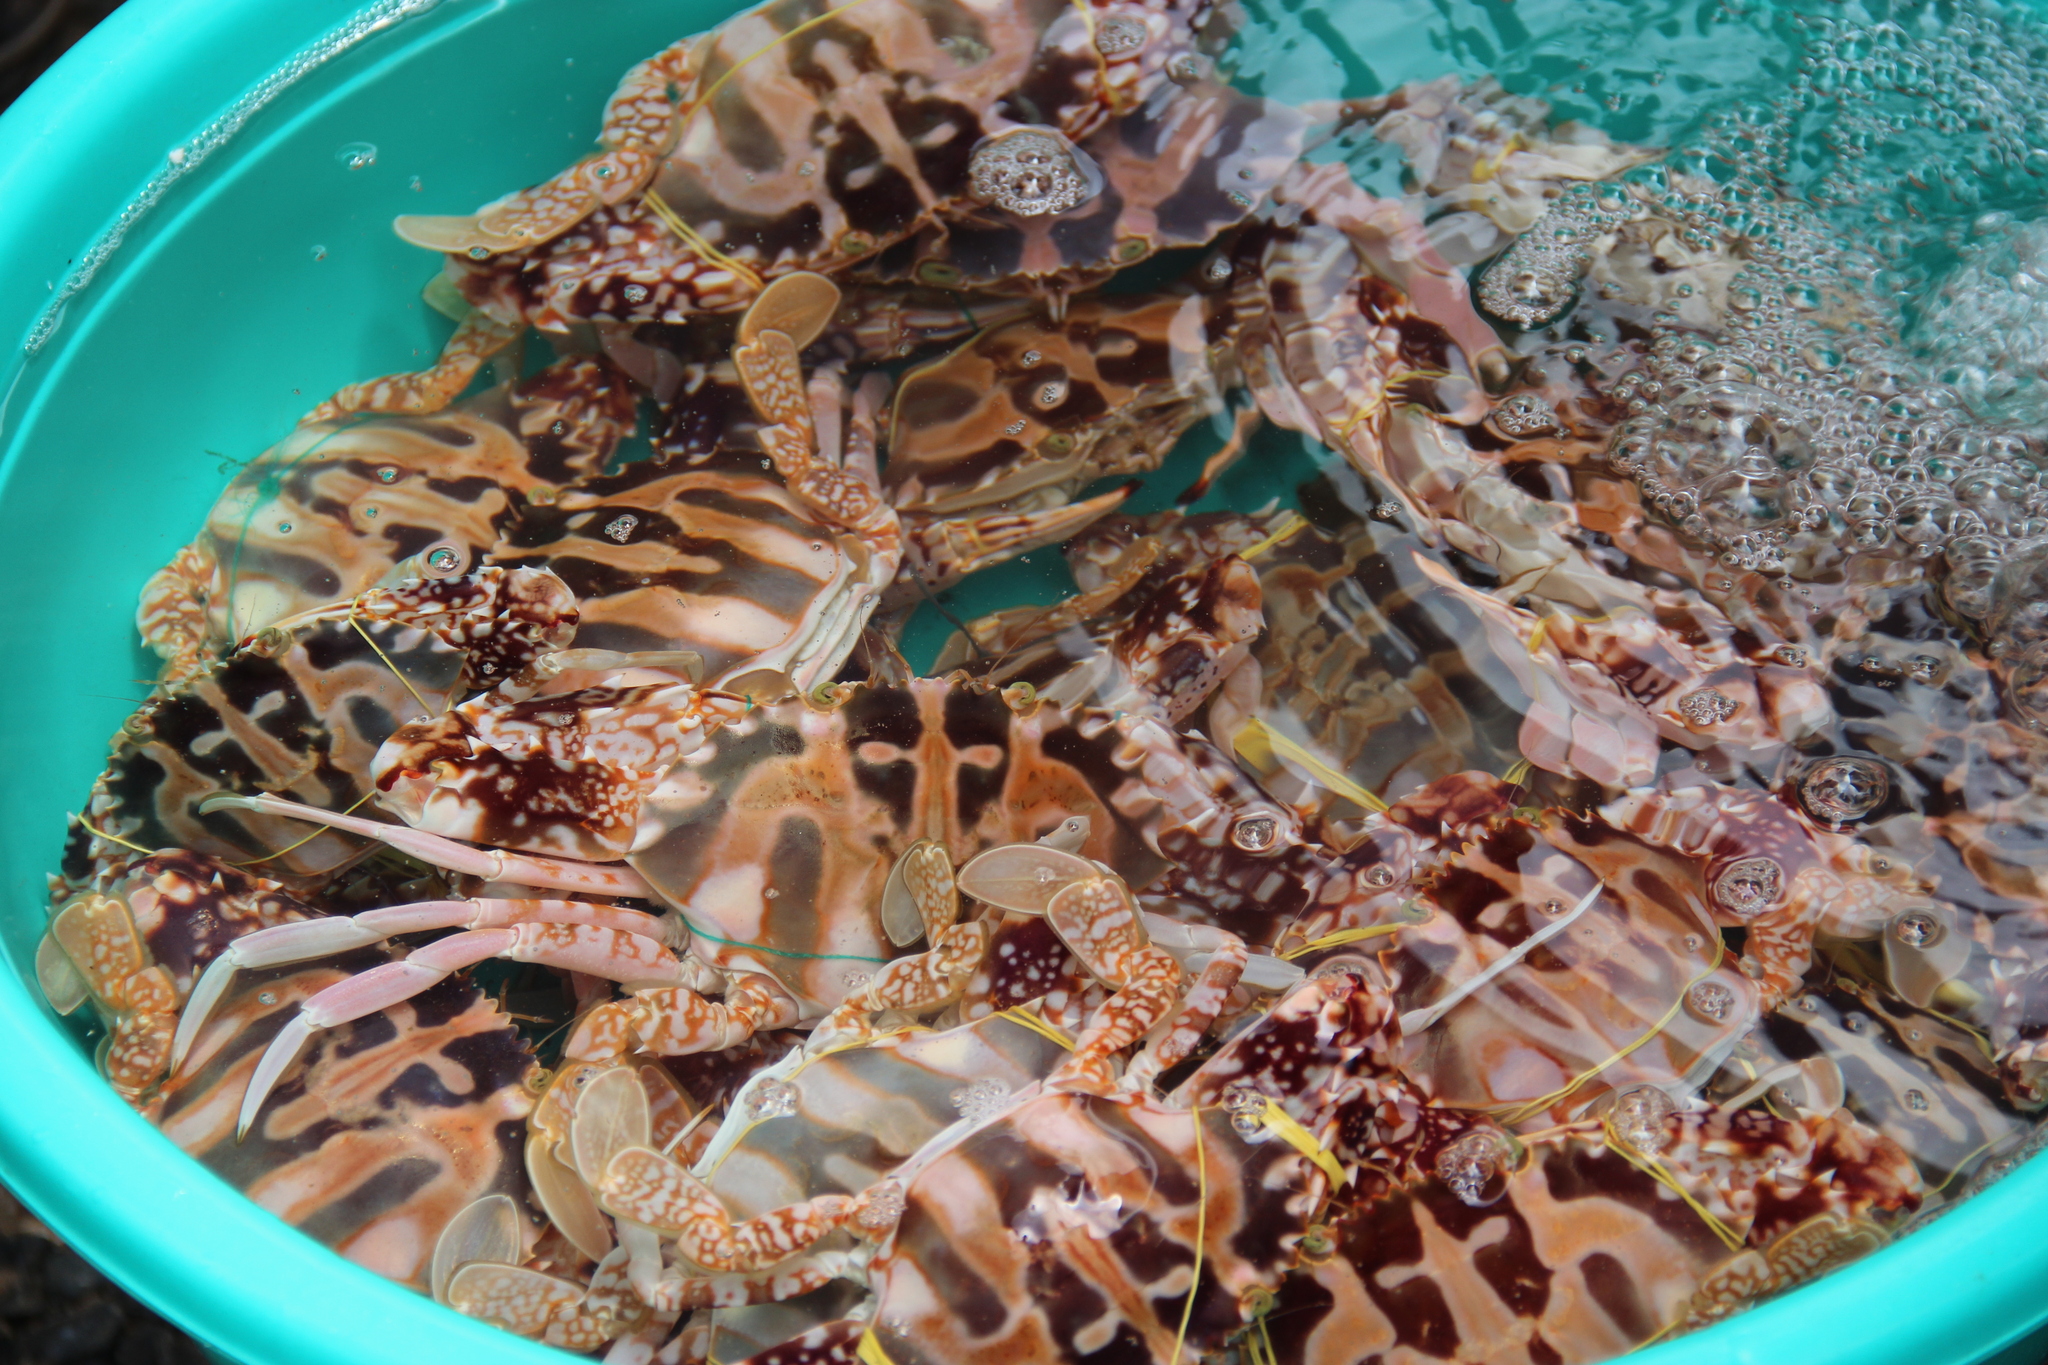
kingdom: Animalia
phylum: Arthropoda
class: Malacostraca
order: Decapoda
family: Portunidae
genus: Charybdis
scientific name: Charybdis feriata
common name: Striped swimming crab
